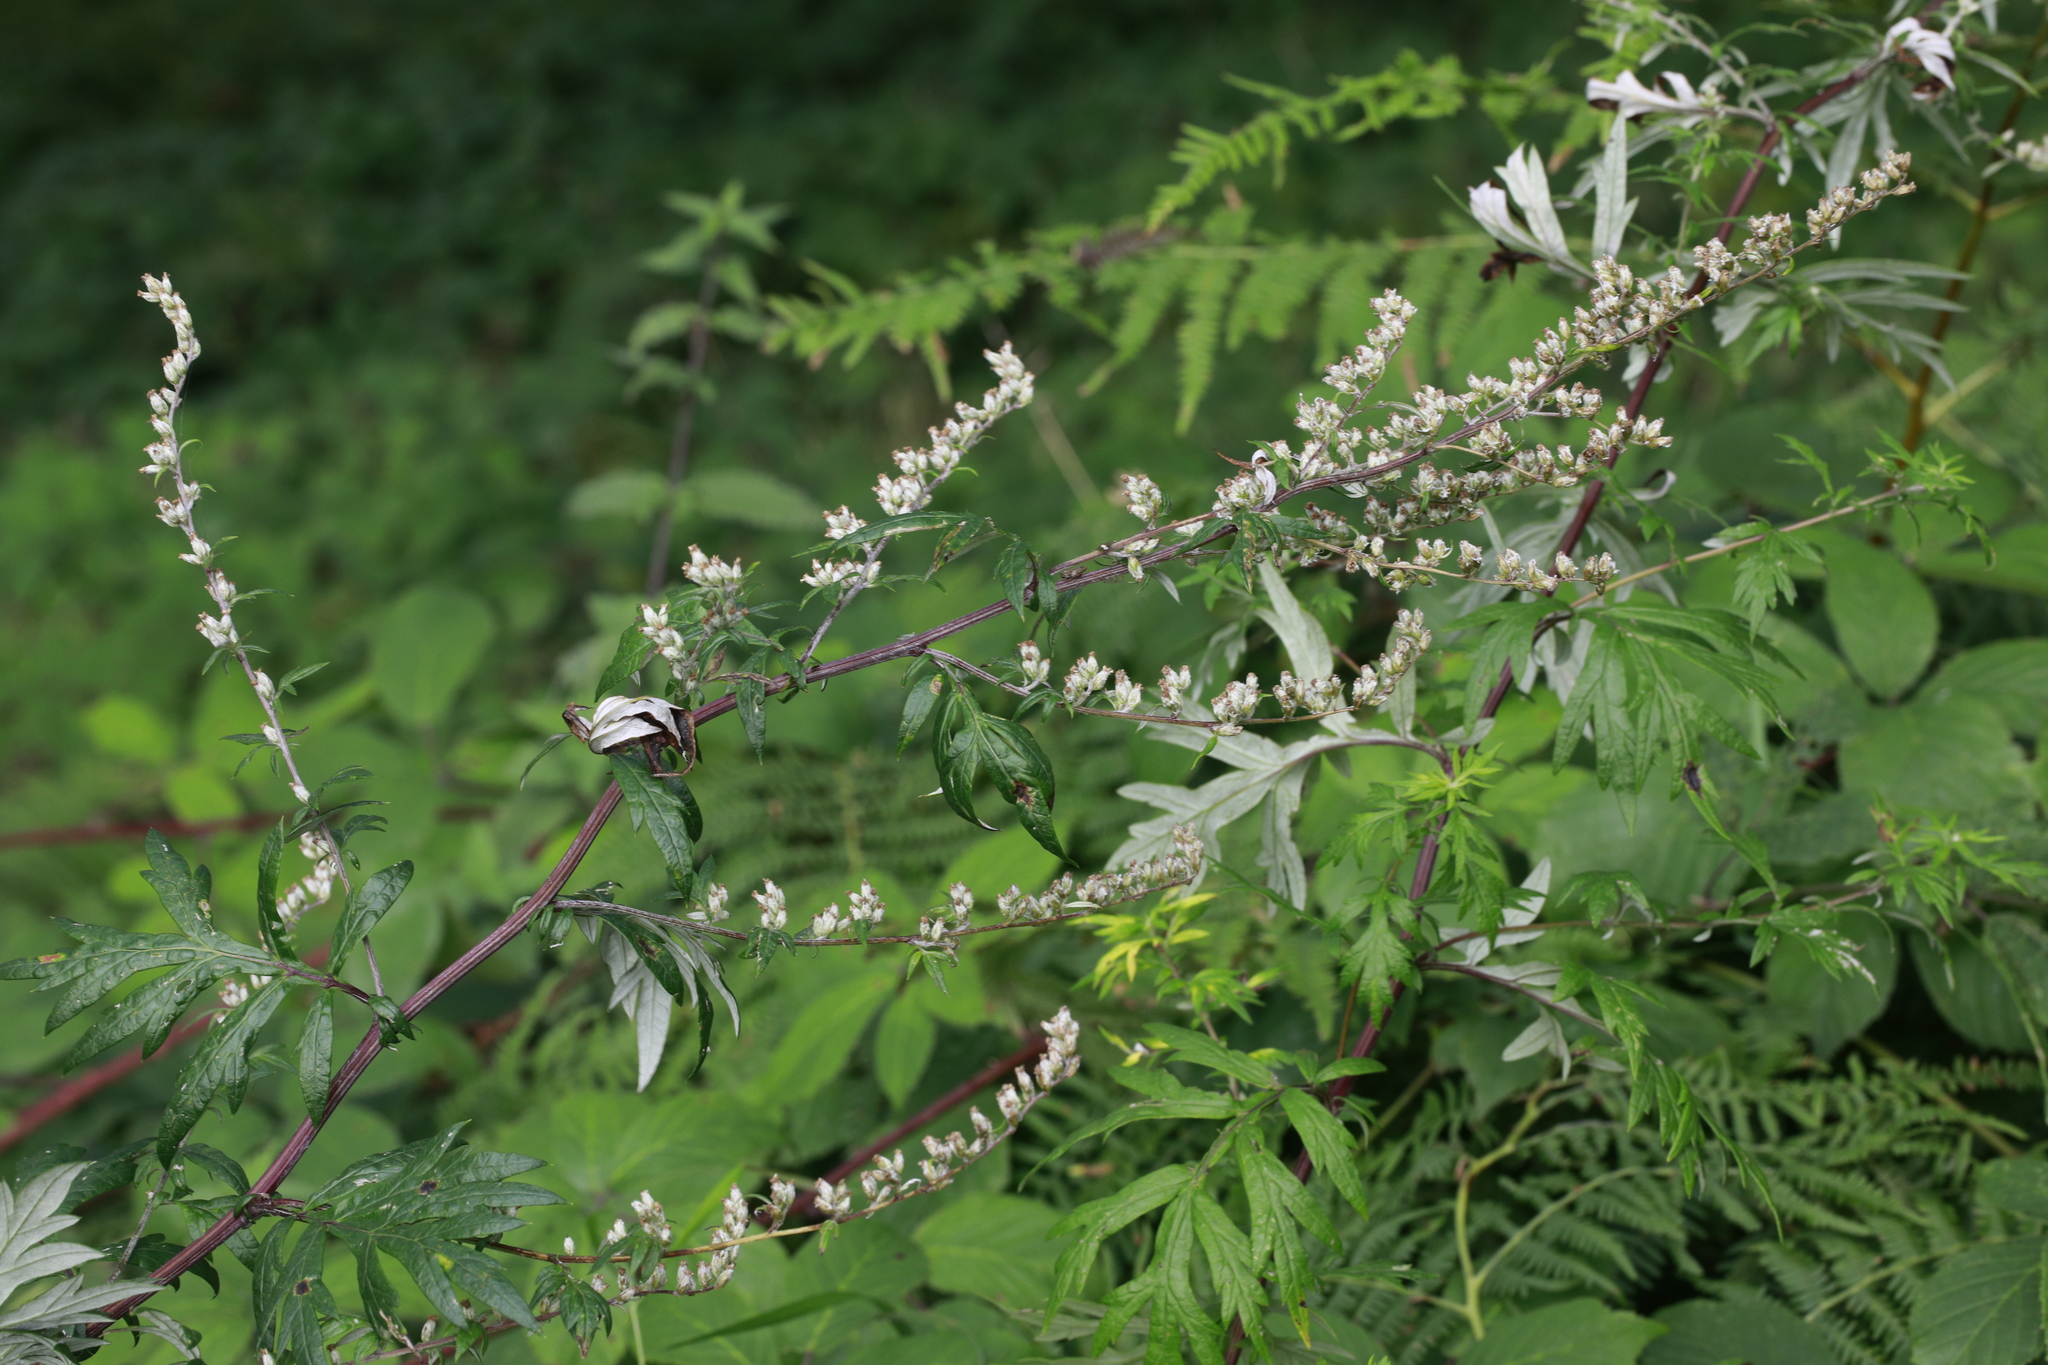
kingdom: Plantae
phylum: Tracheophyta
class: Magnoliopsida
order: Asterales
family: Asteraceae
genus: Artemisia
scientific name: Artemisia vulgaris
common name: Mugwort
